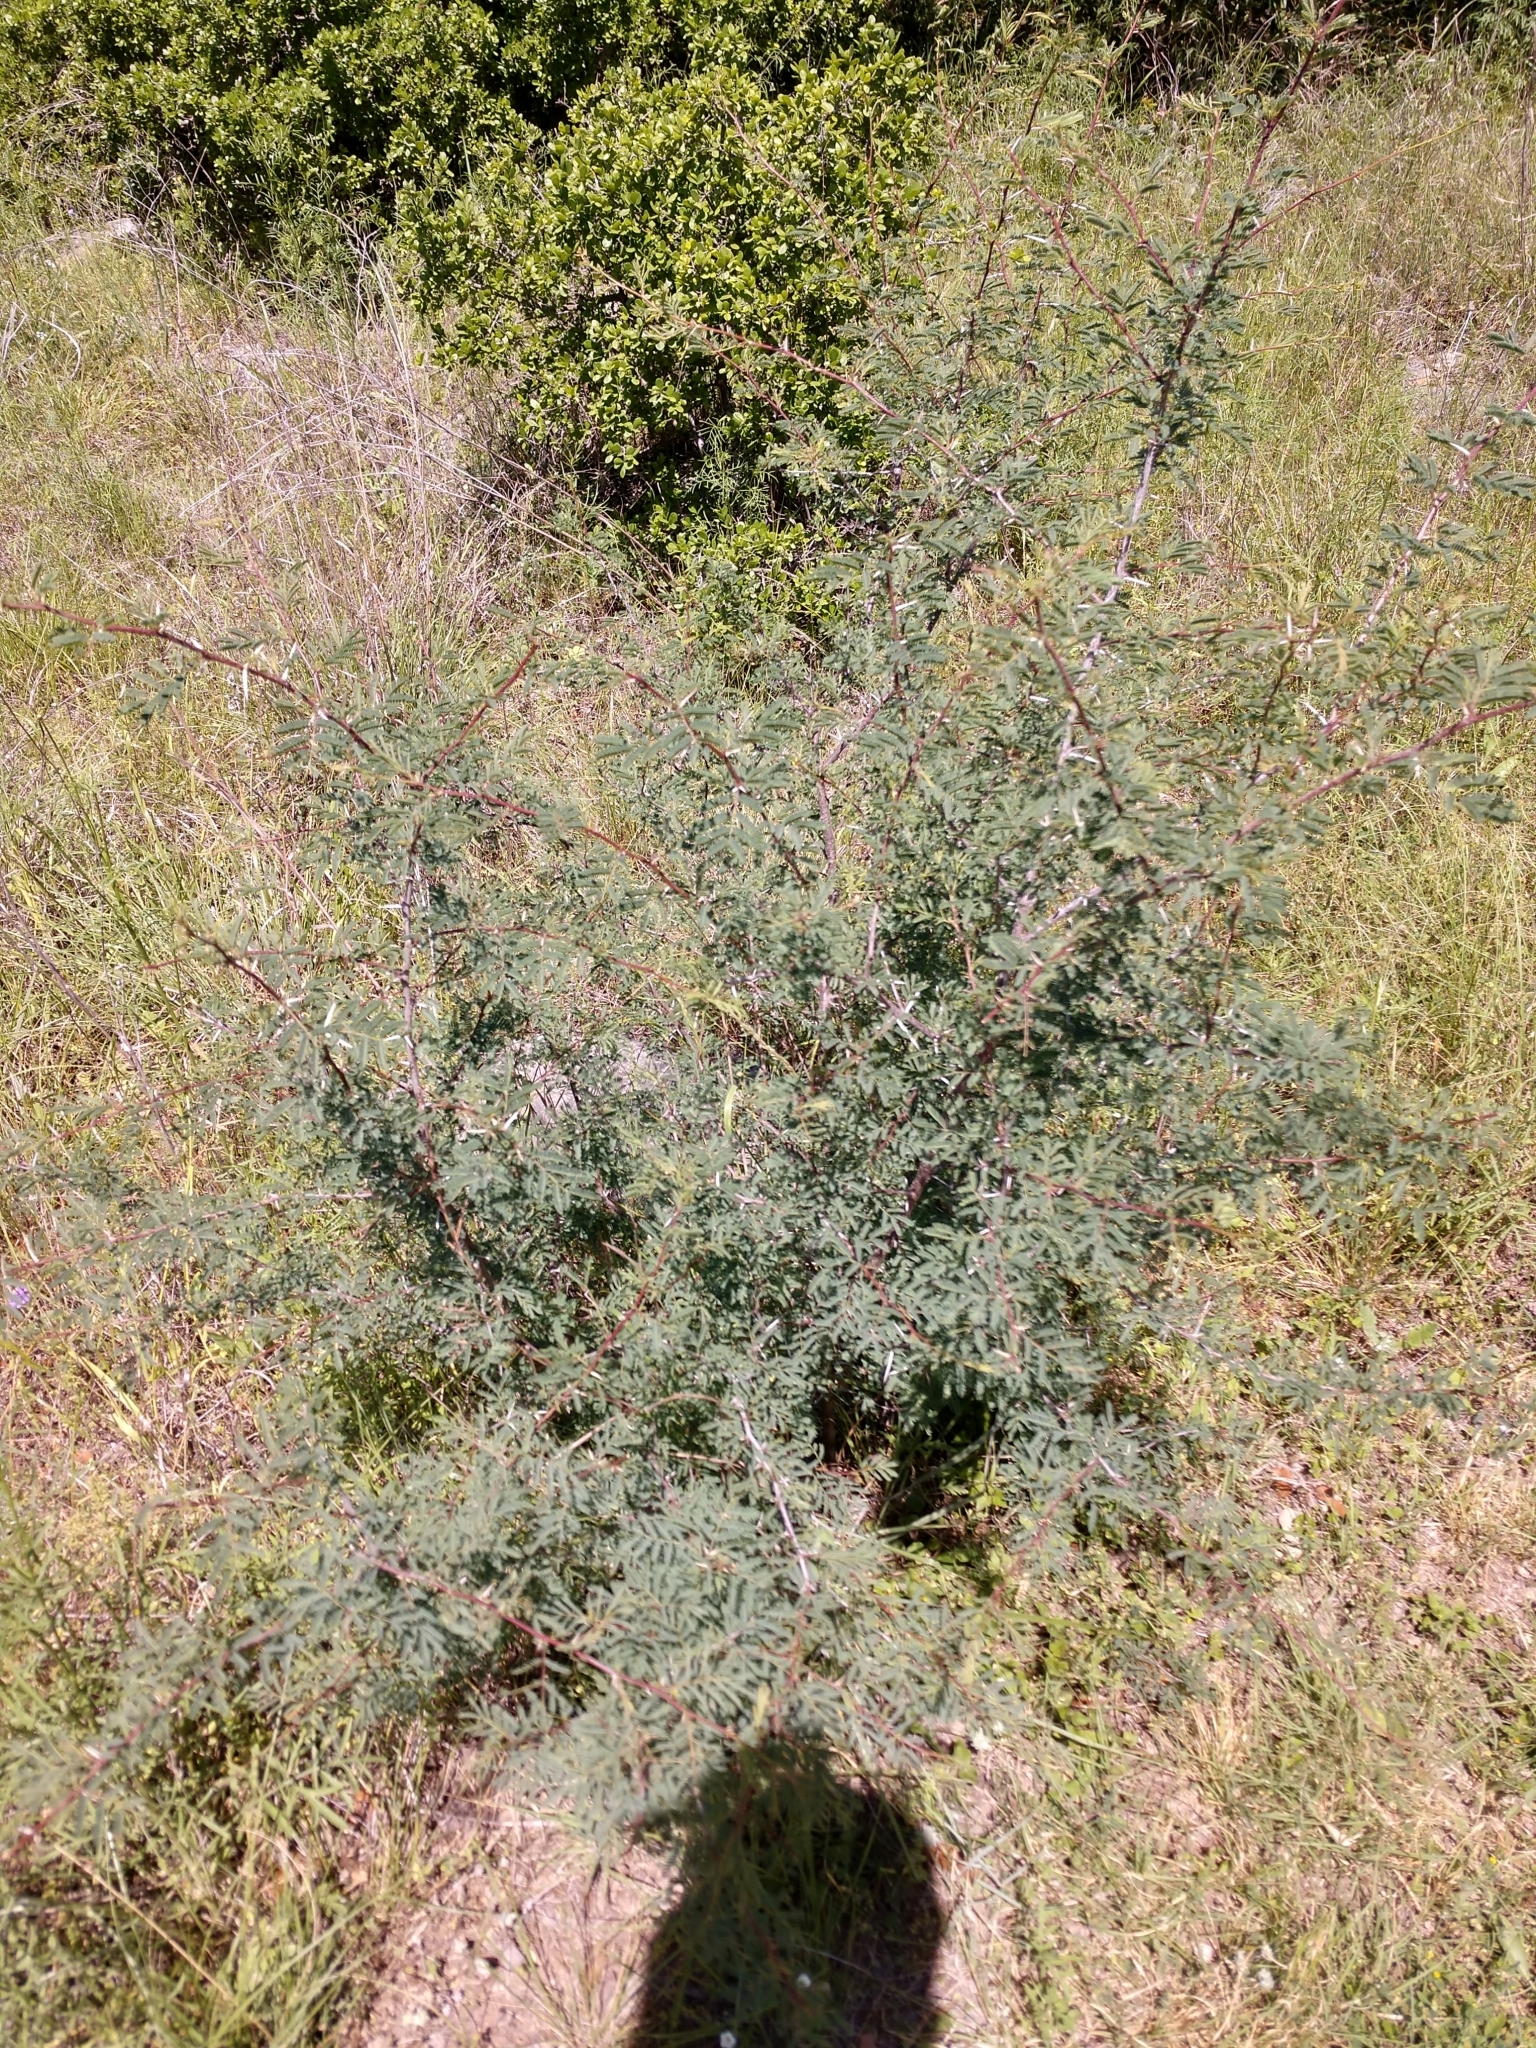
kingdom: Plantae
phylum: Tracheophyta
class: Magnoliopsida
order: Fabales
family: Fabaceae
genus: Vachellia
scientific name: Vachellia farnesiana
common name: Sweet acacia
